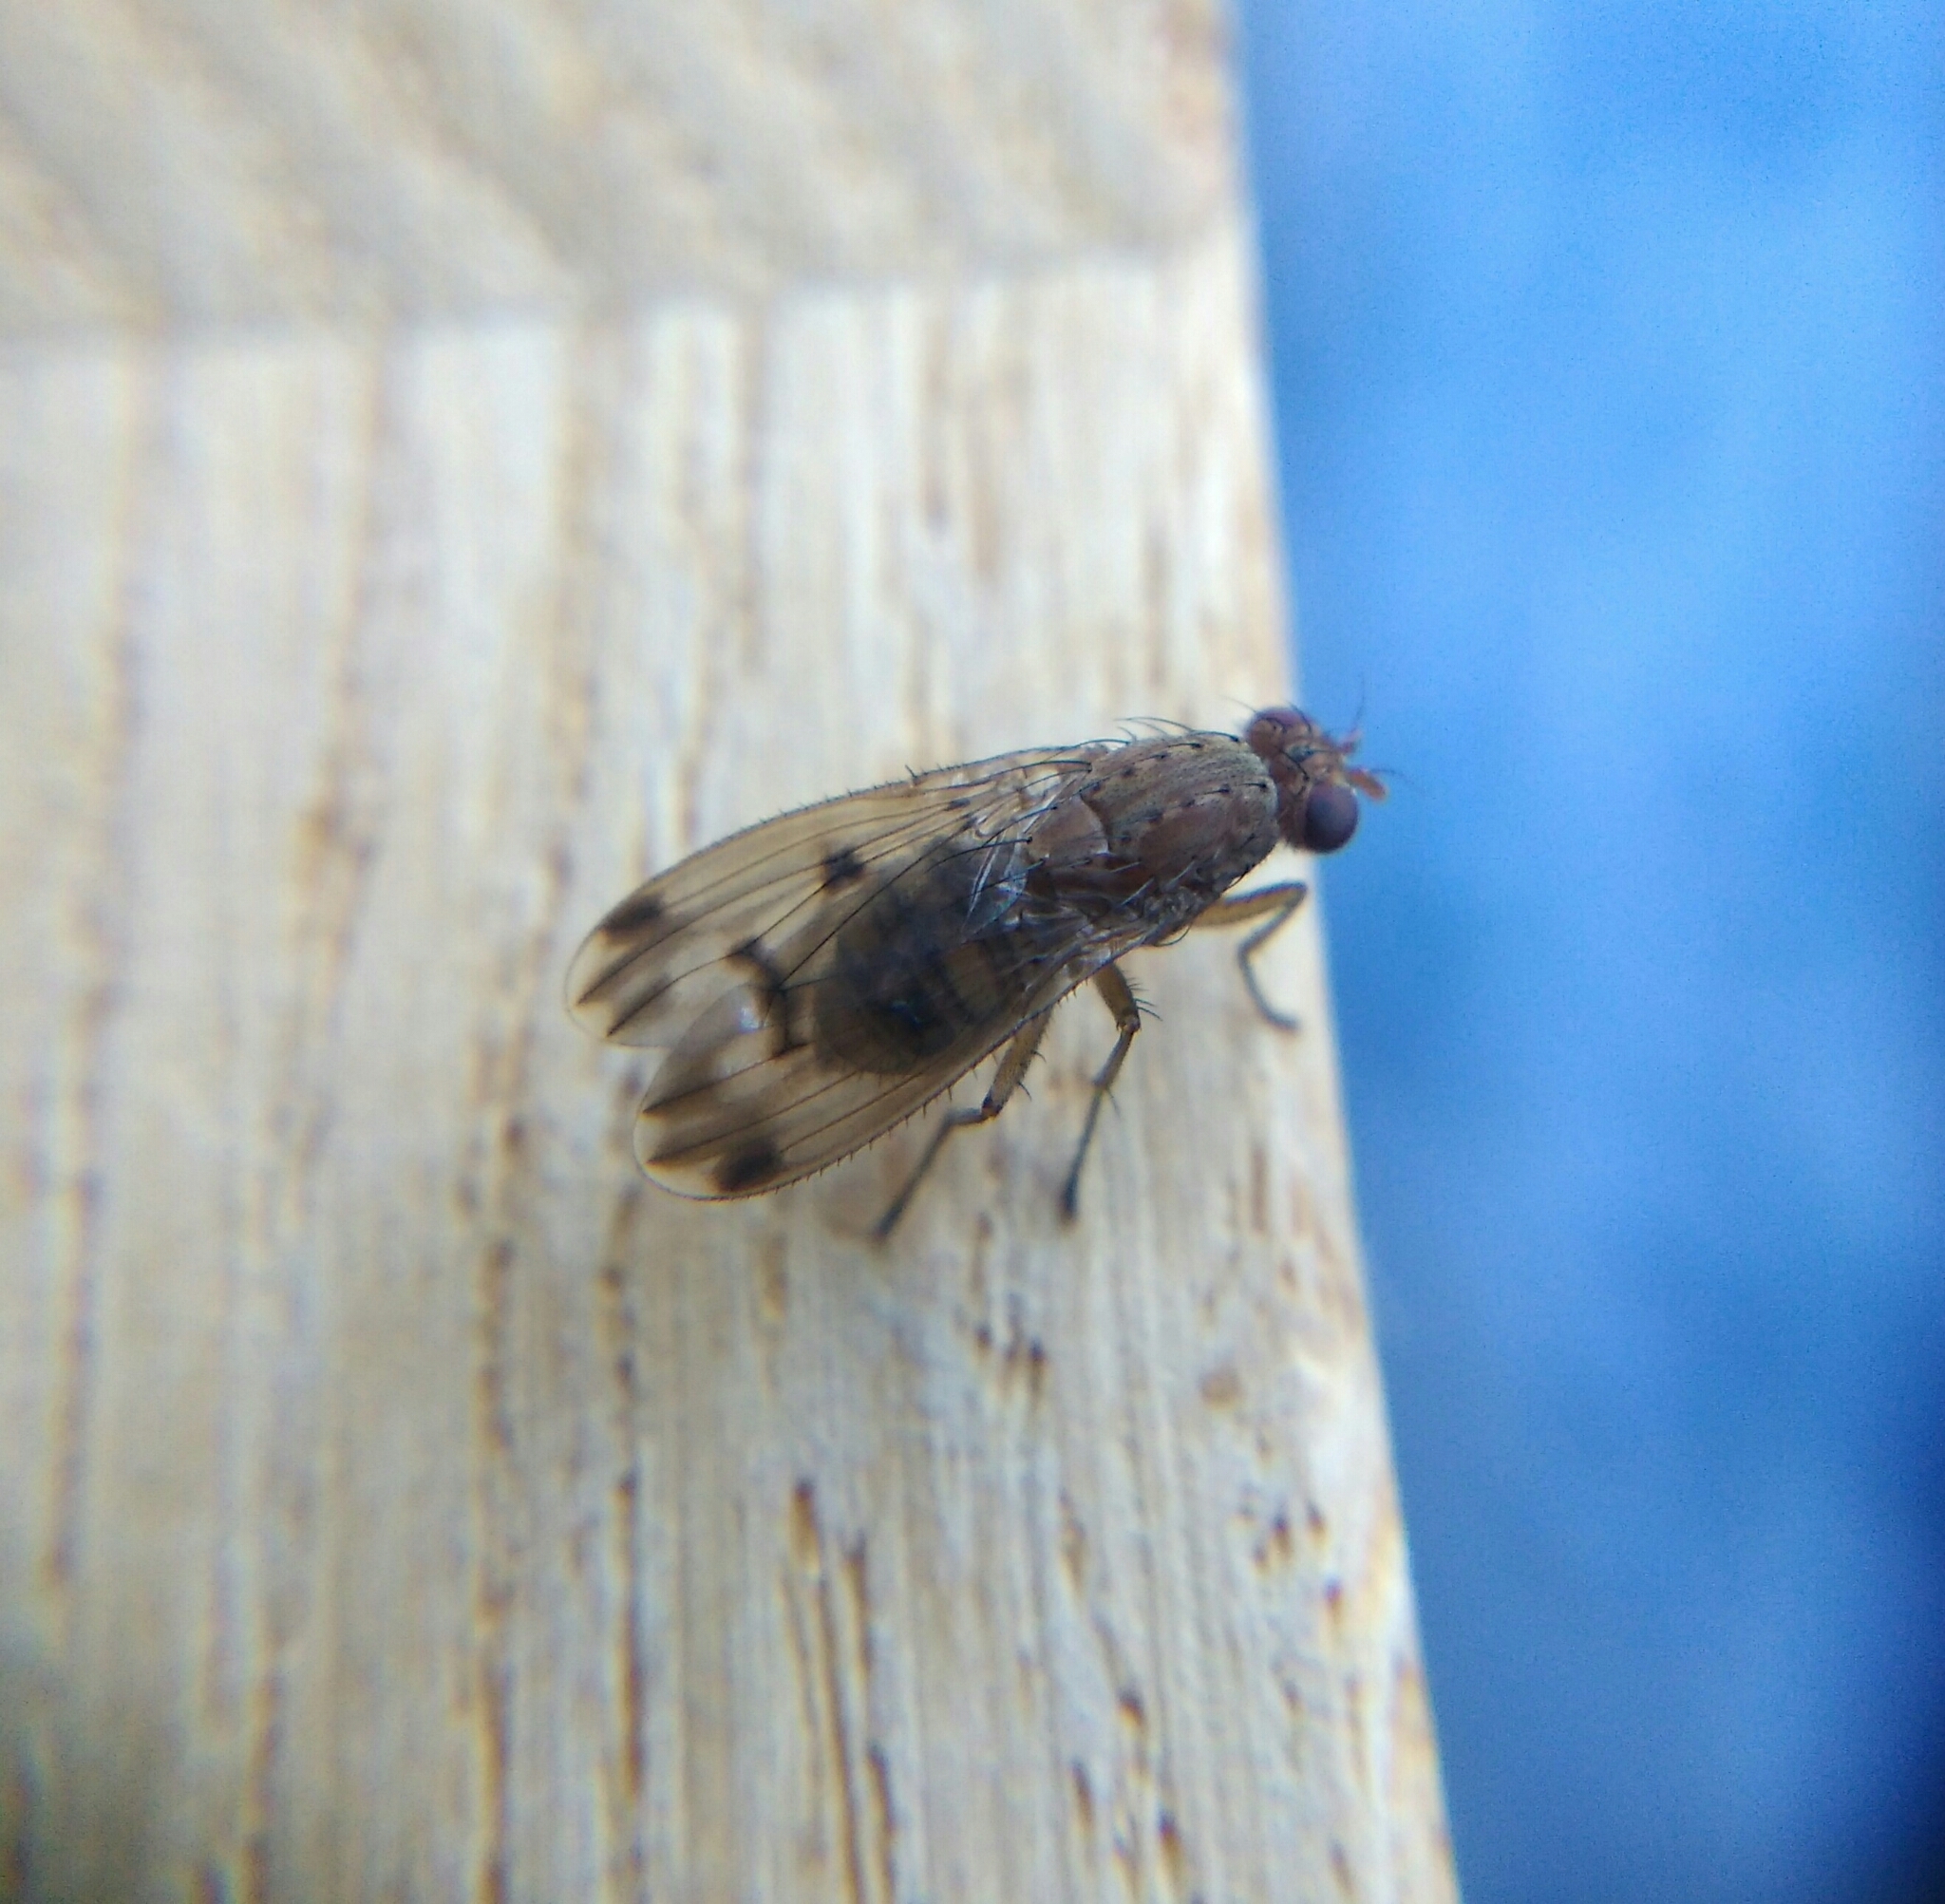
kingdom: Animalia
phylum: Arthropoda
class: Insecta
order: Diptera
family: Heleomyzidae
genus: Suillia
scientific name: Suillia variegata
